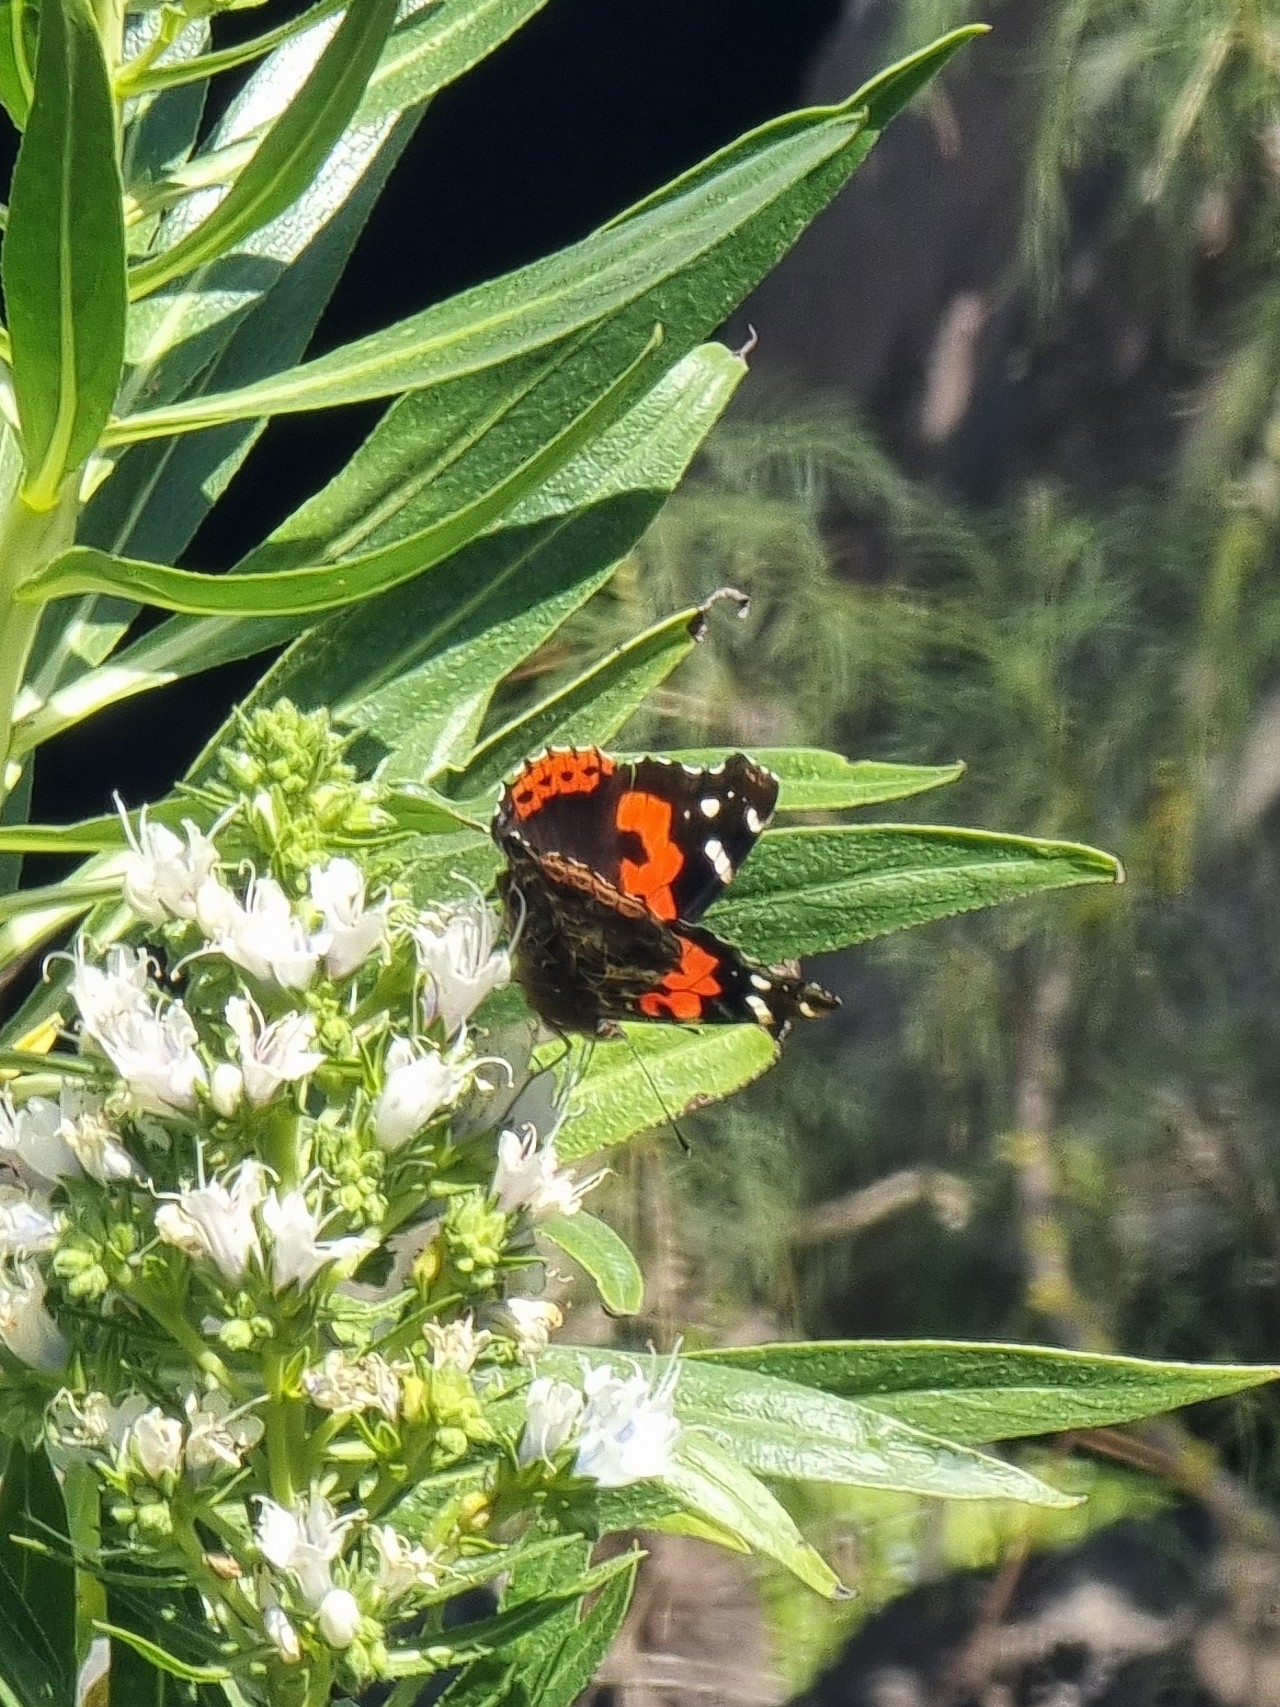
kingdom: Animalia
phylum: Arthropoda
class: Insecta
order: Lepidoptera
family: Nymphalidae
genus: Vanessa
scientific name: Vanessa vulcania
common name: Canary red admiral
